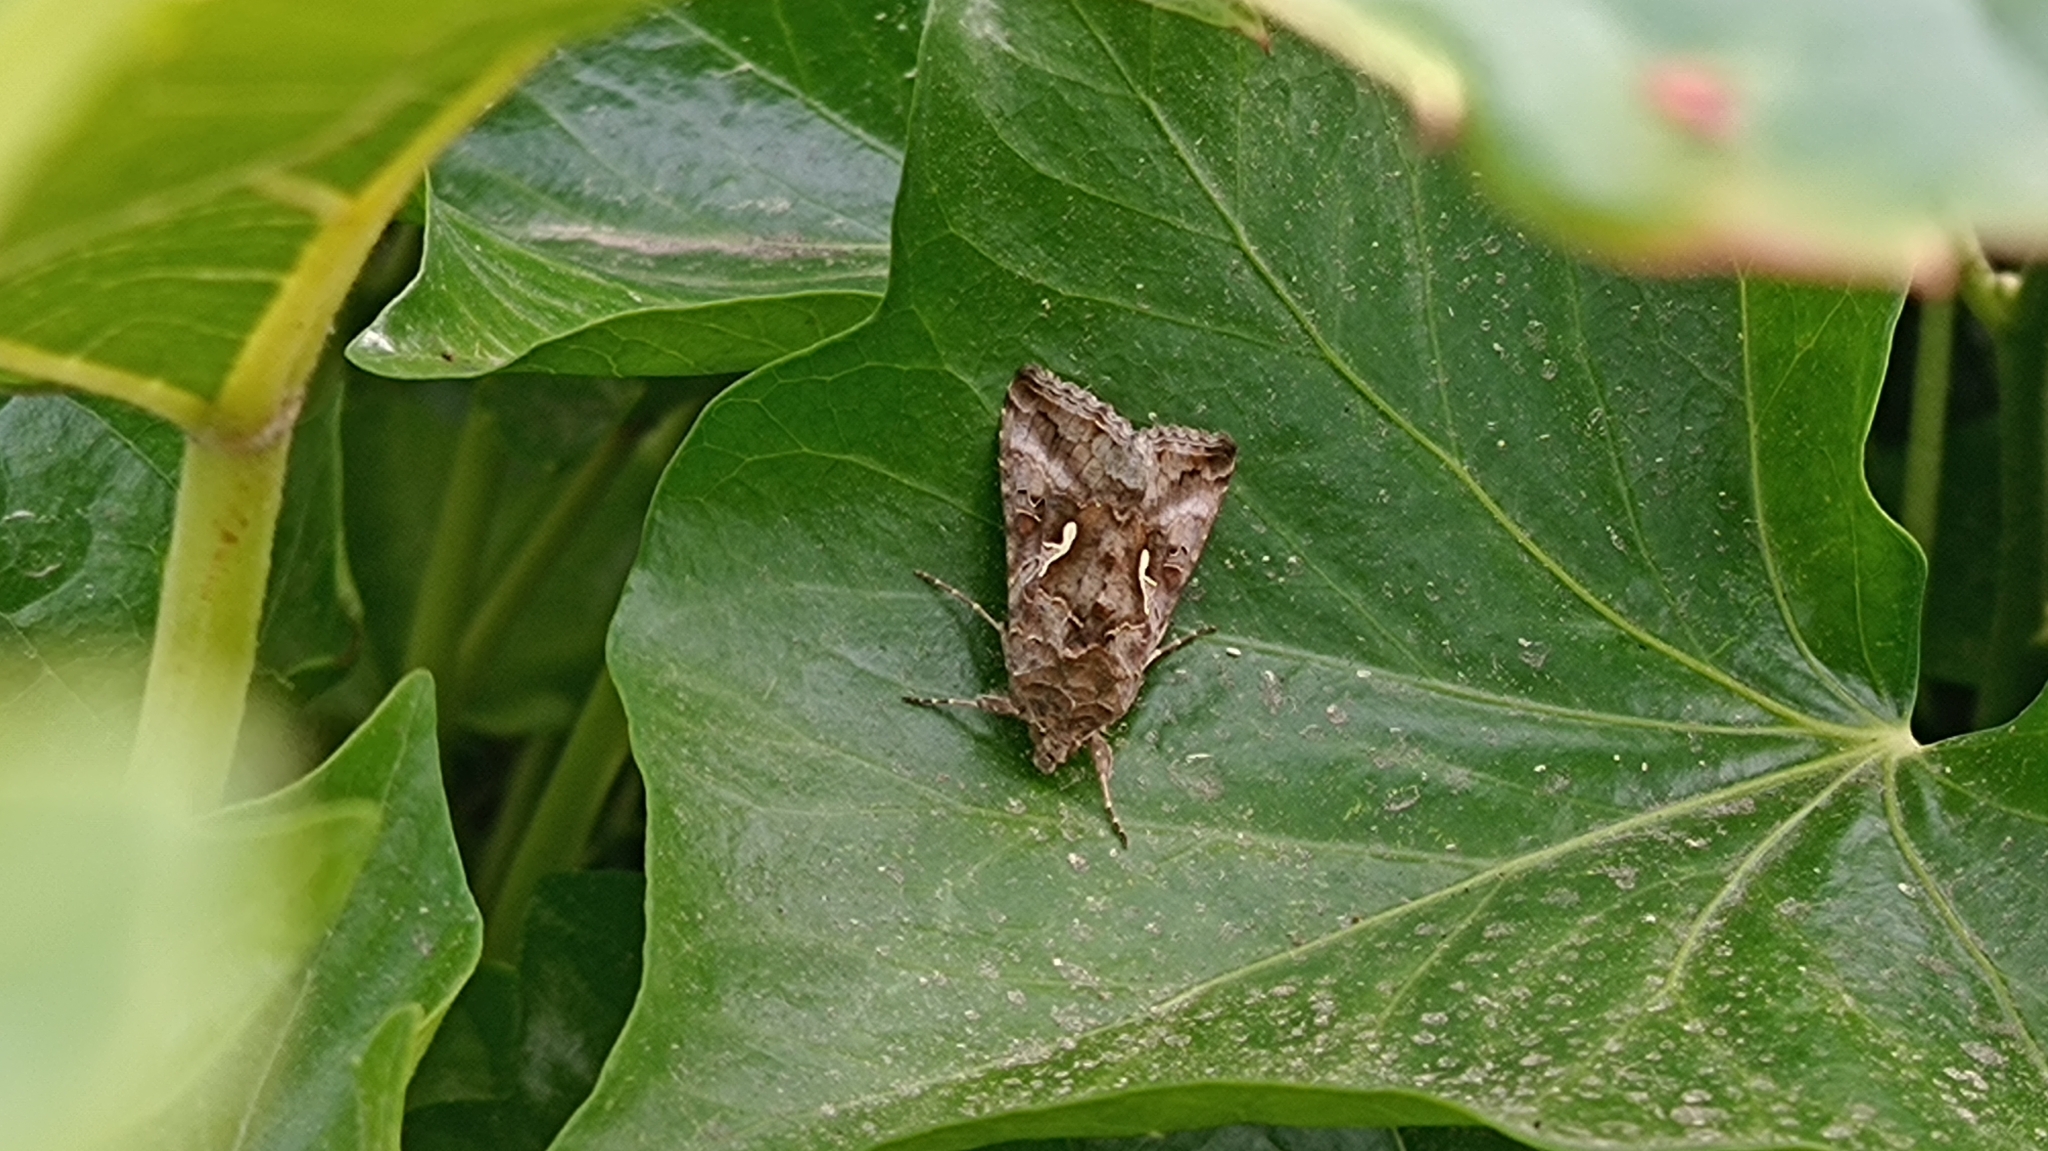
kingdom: Animalia
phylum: Arthropoda
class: Insecta
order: Lepidoptera
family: Noctuidae
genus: Autographa
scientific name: Autographa gamma
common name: Silver y
